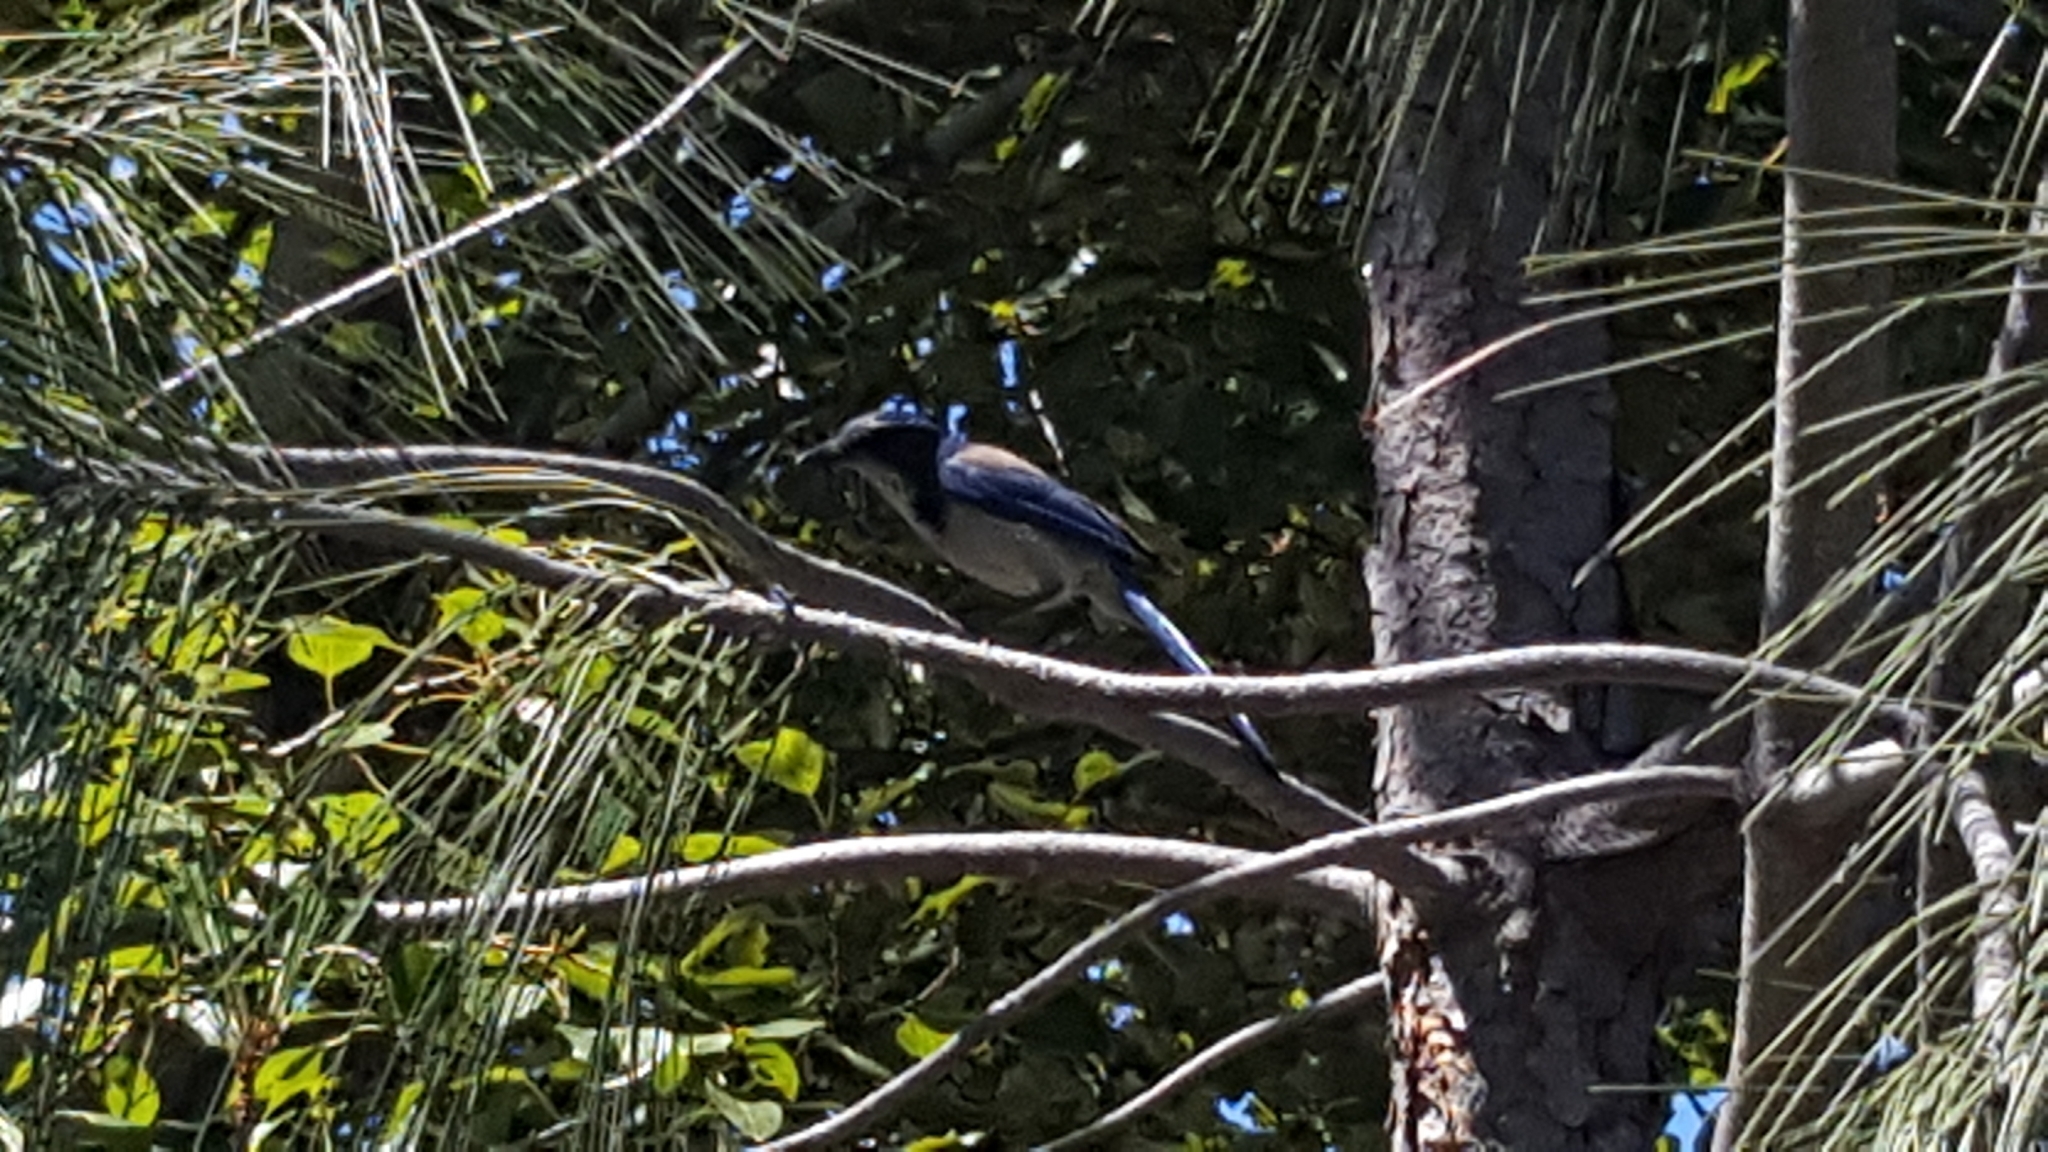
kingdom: Animalia
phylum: Chordata
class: Aves
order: Passeriformes
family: Corvidae
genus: Aphelocoma
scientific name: Aphelocoma californica
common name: California scrub-jay
